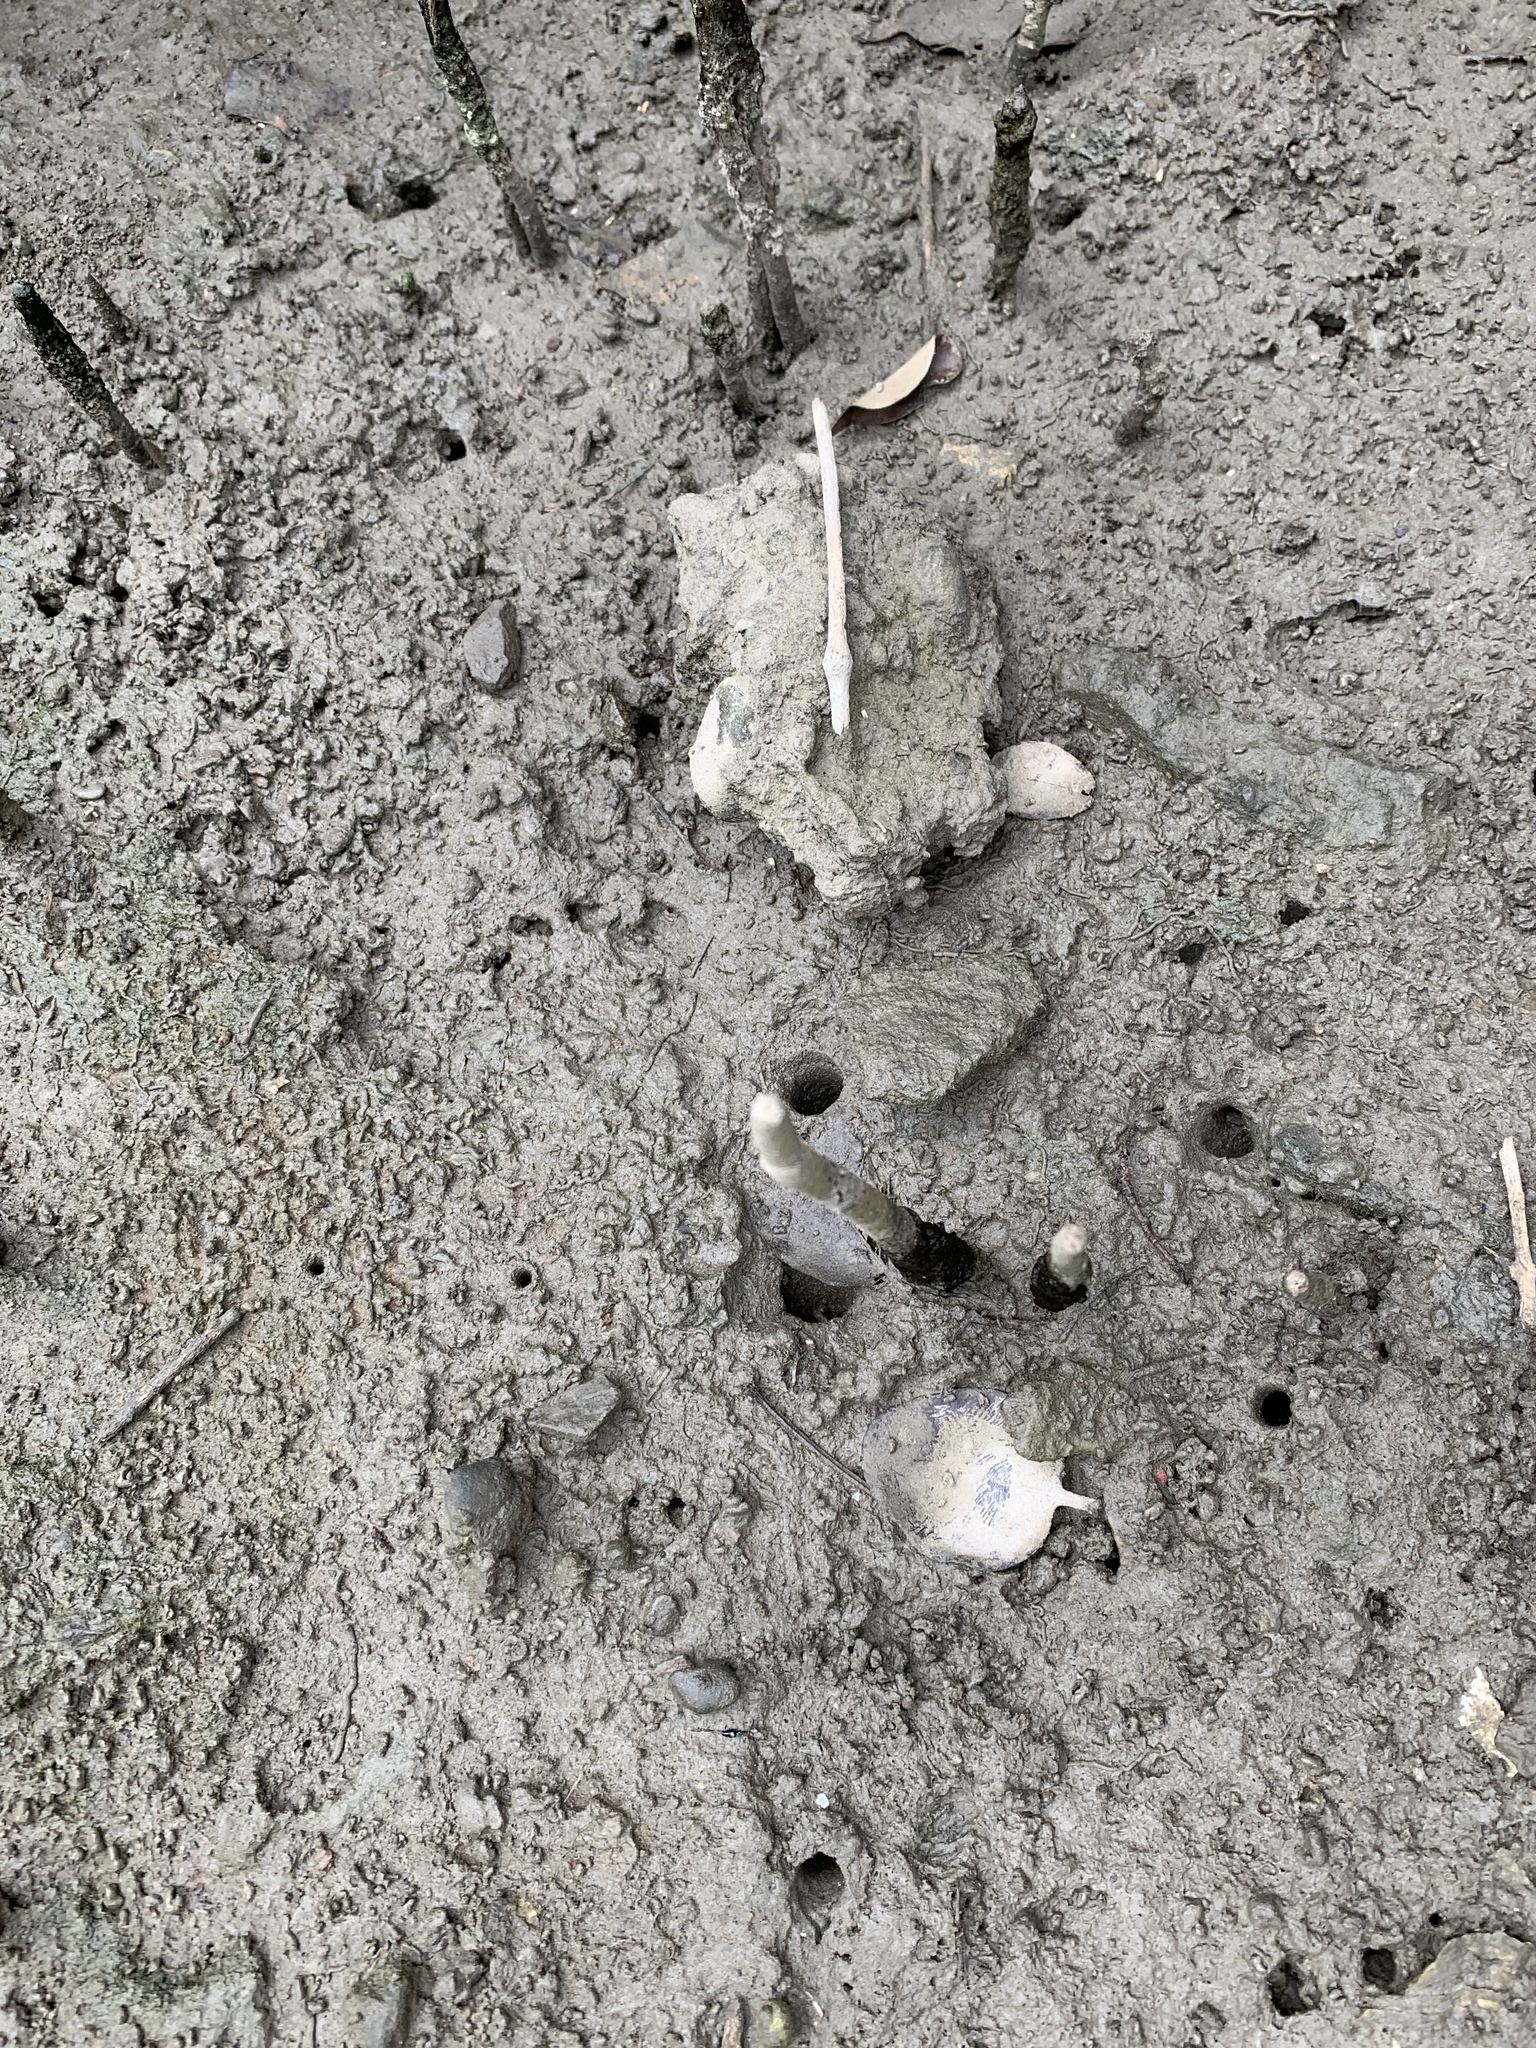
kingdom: Plantae
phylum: Tracheophyta
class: Magnoliopsida
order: Malpighiales
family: Rhizophoraceae
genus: Kandelia
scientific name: Kandelia obovata
